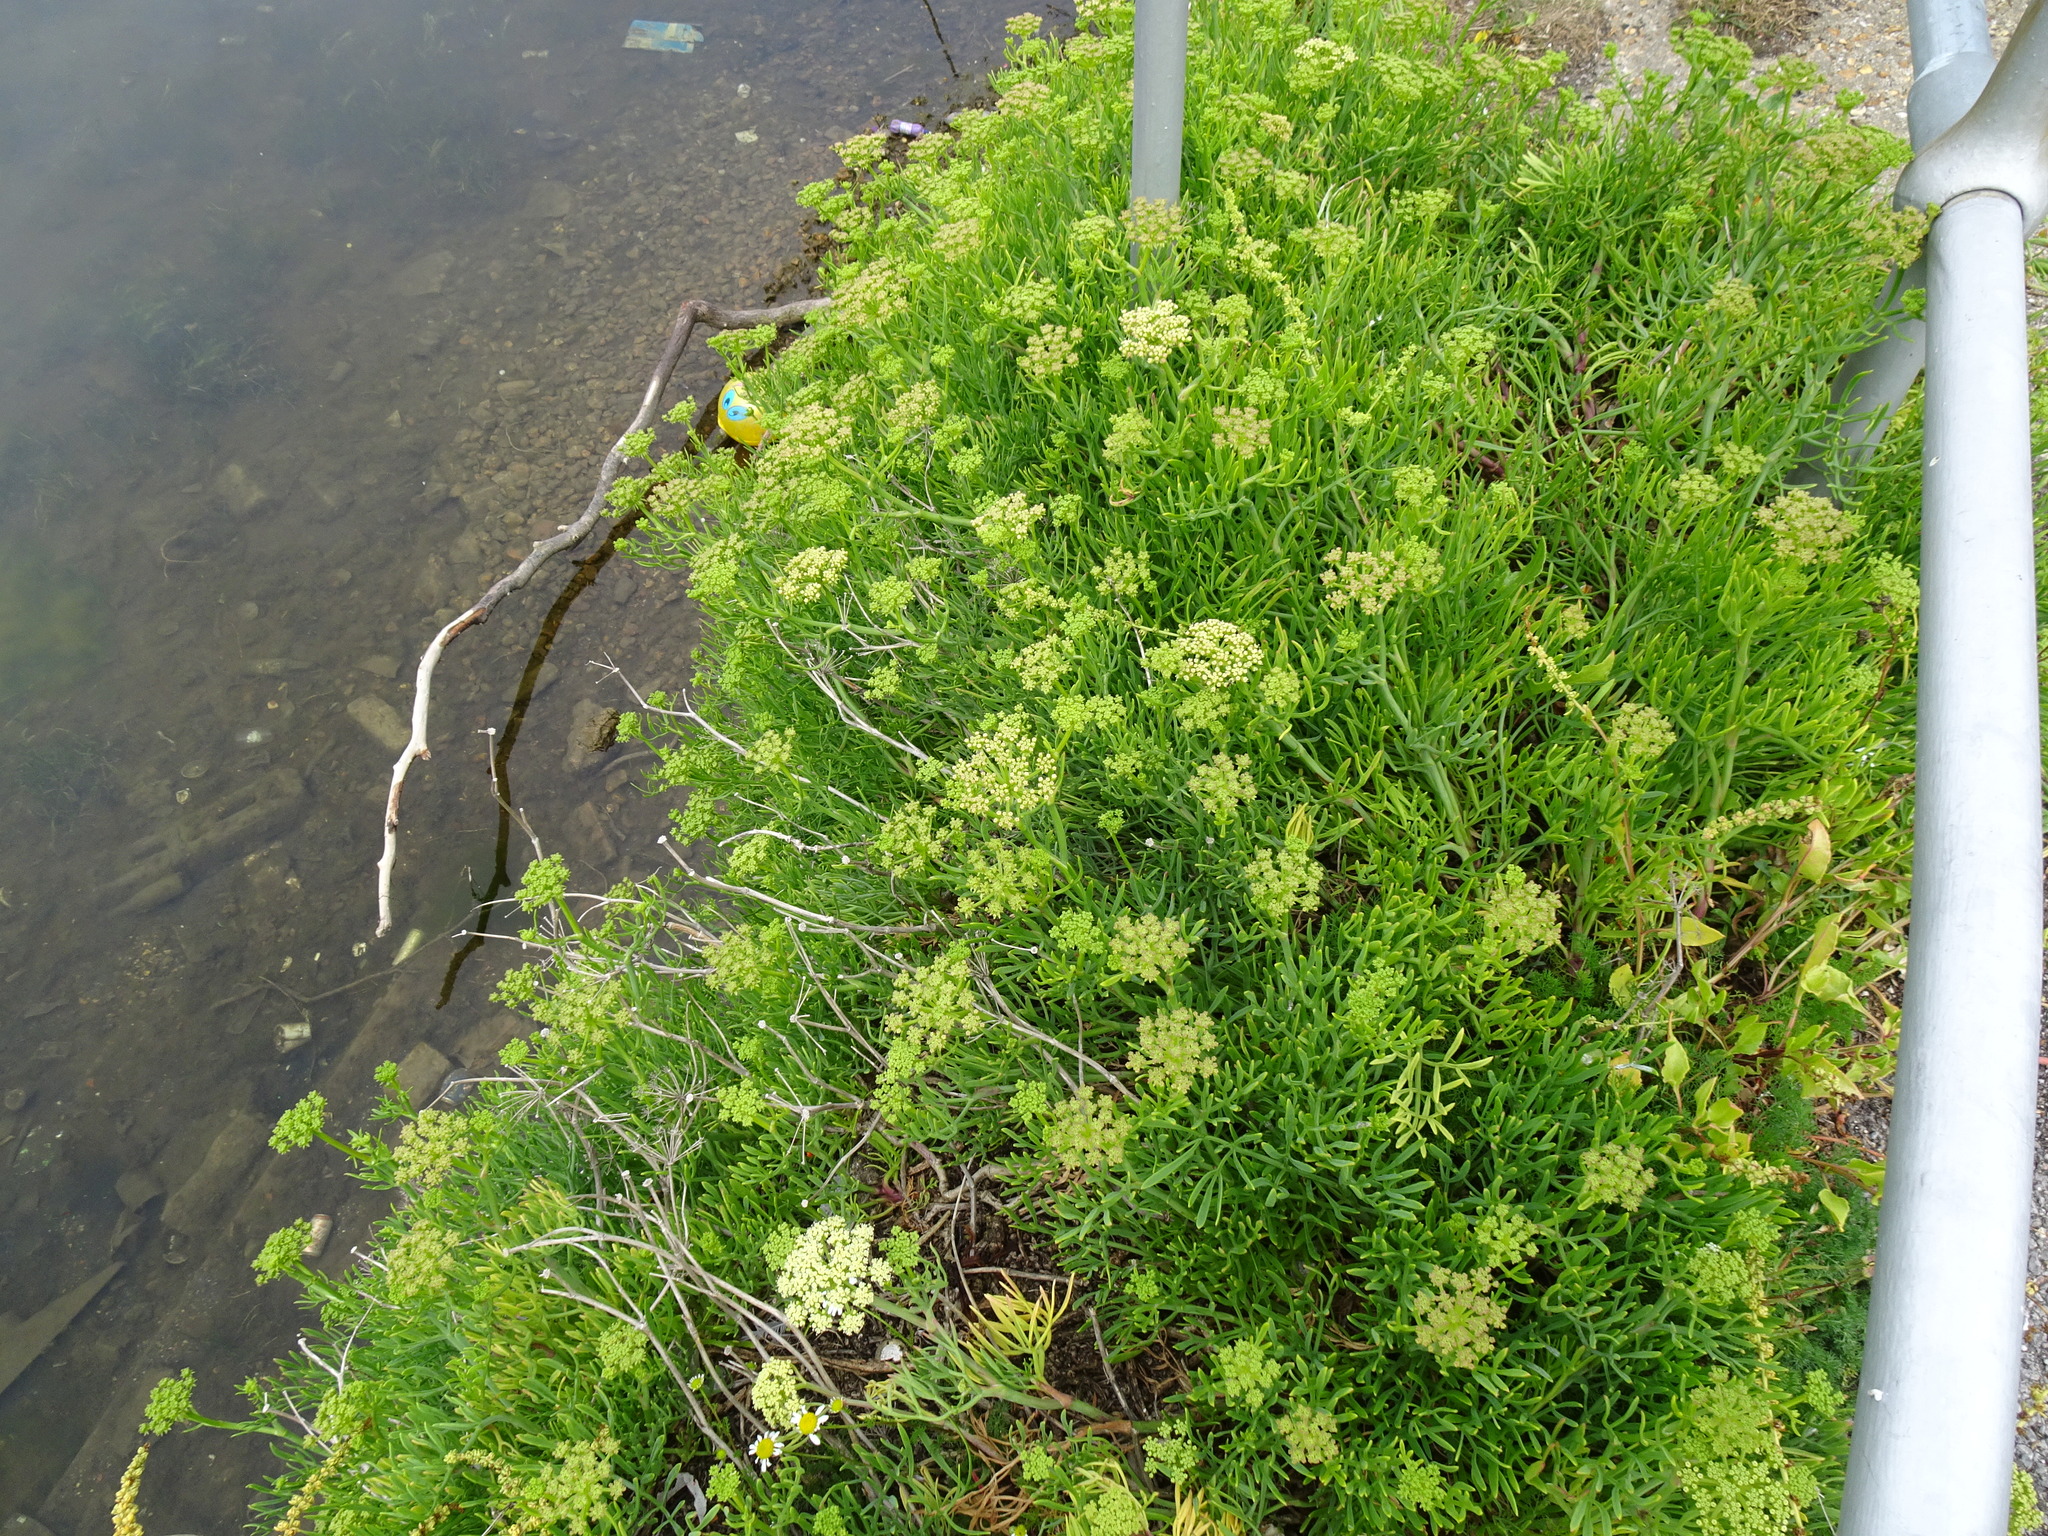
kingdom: Plantae
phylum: Tracheophyta
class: Magnoliopsida
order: Apiales
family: Apiaceae
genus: Crithmum
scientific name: Crithmum maritimum
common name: Rock samphire
